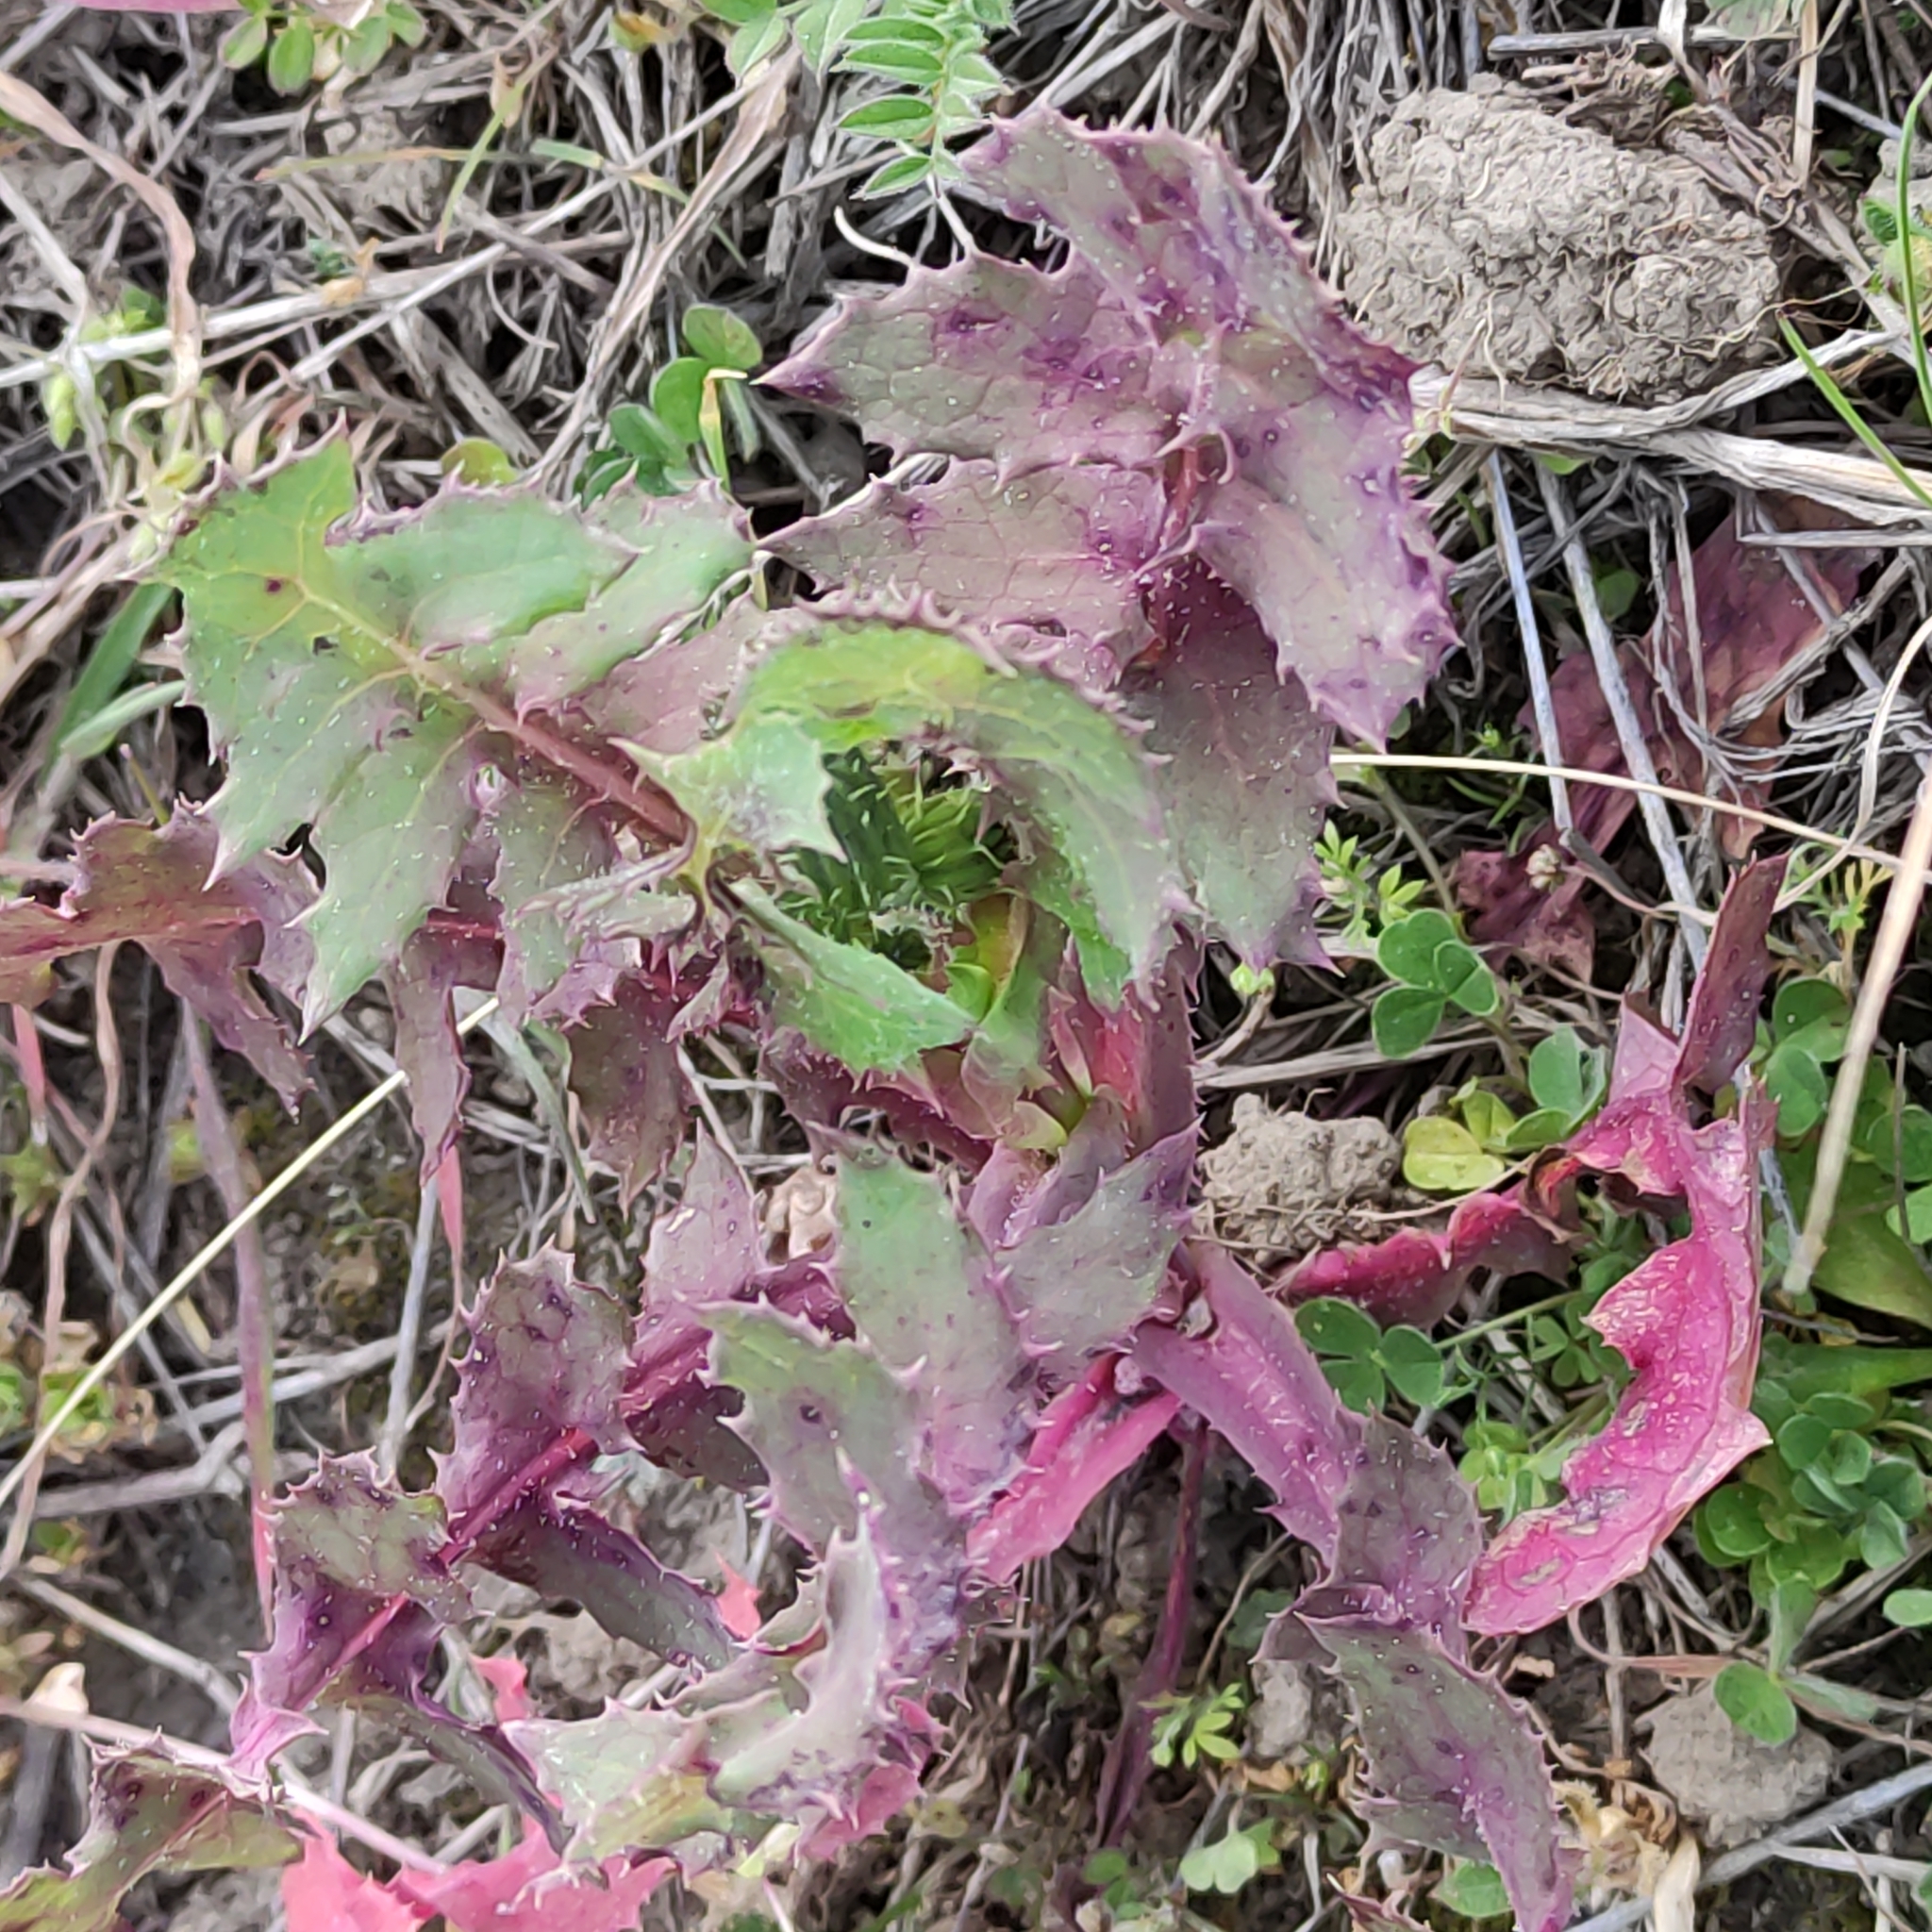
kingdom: Plantae
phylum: Tracheophyta
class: Magnoliopsida
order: Asterales
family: Asteraceae
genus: Sonchus
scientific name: Sonchus oleraceus
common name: Common sowthistle
